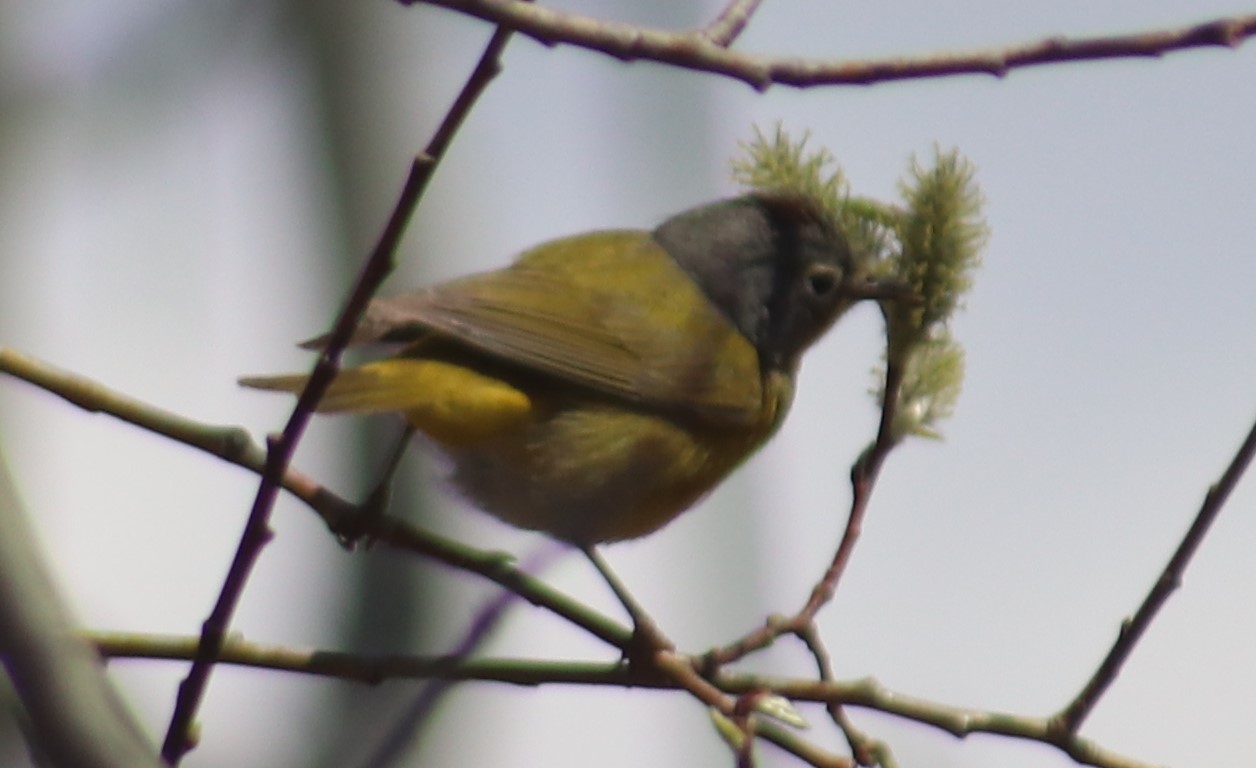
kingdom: Animalia
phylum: Chordata
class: Aves
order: Passeriformes
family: Parulidae
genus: Leiothlypis
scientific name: Leiothlypis ruficapilla
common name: Nashville warbler
